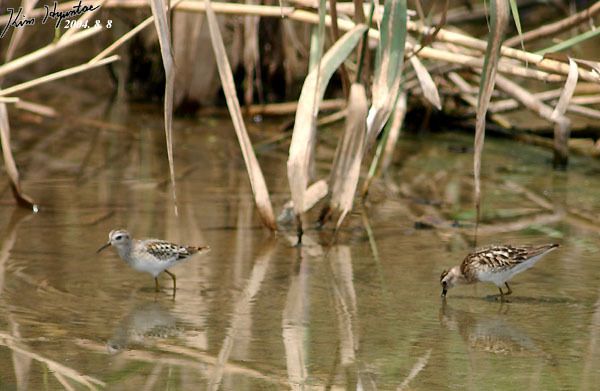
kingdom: Animalia
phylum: Chordata
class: Aves
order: Charadriiformes
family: Scolopacidae
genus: Calidris
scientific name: Calidris subminuta
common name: Long-toed stint
